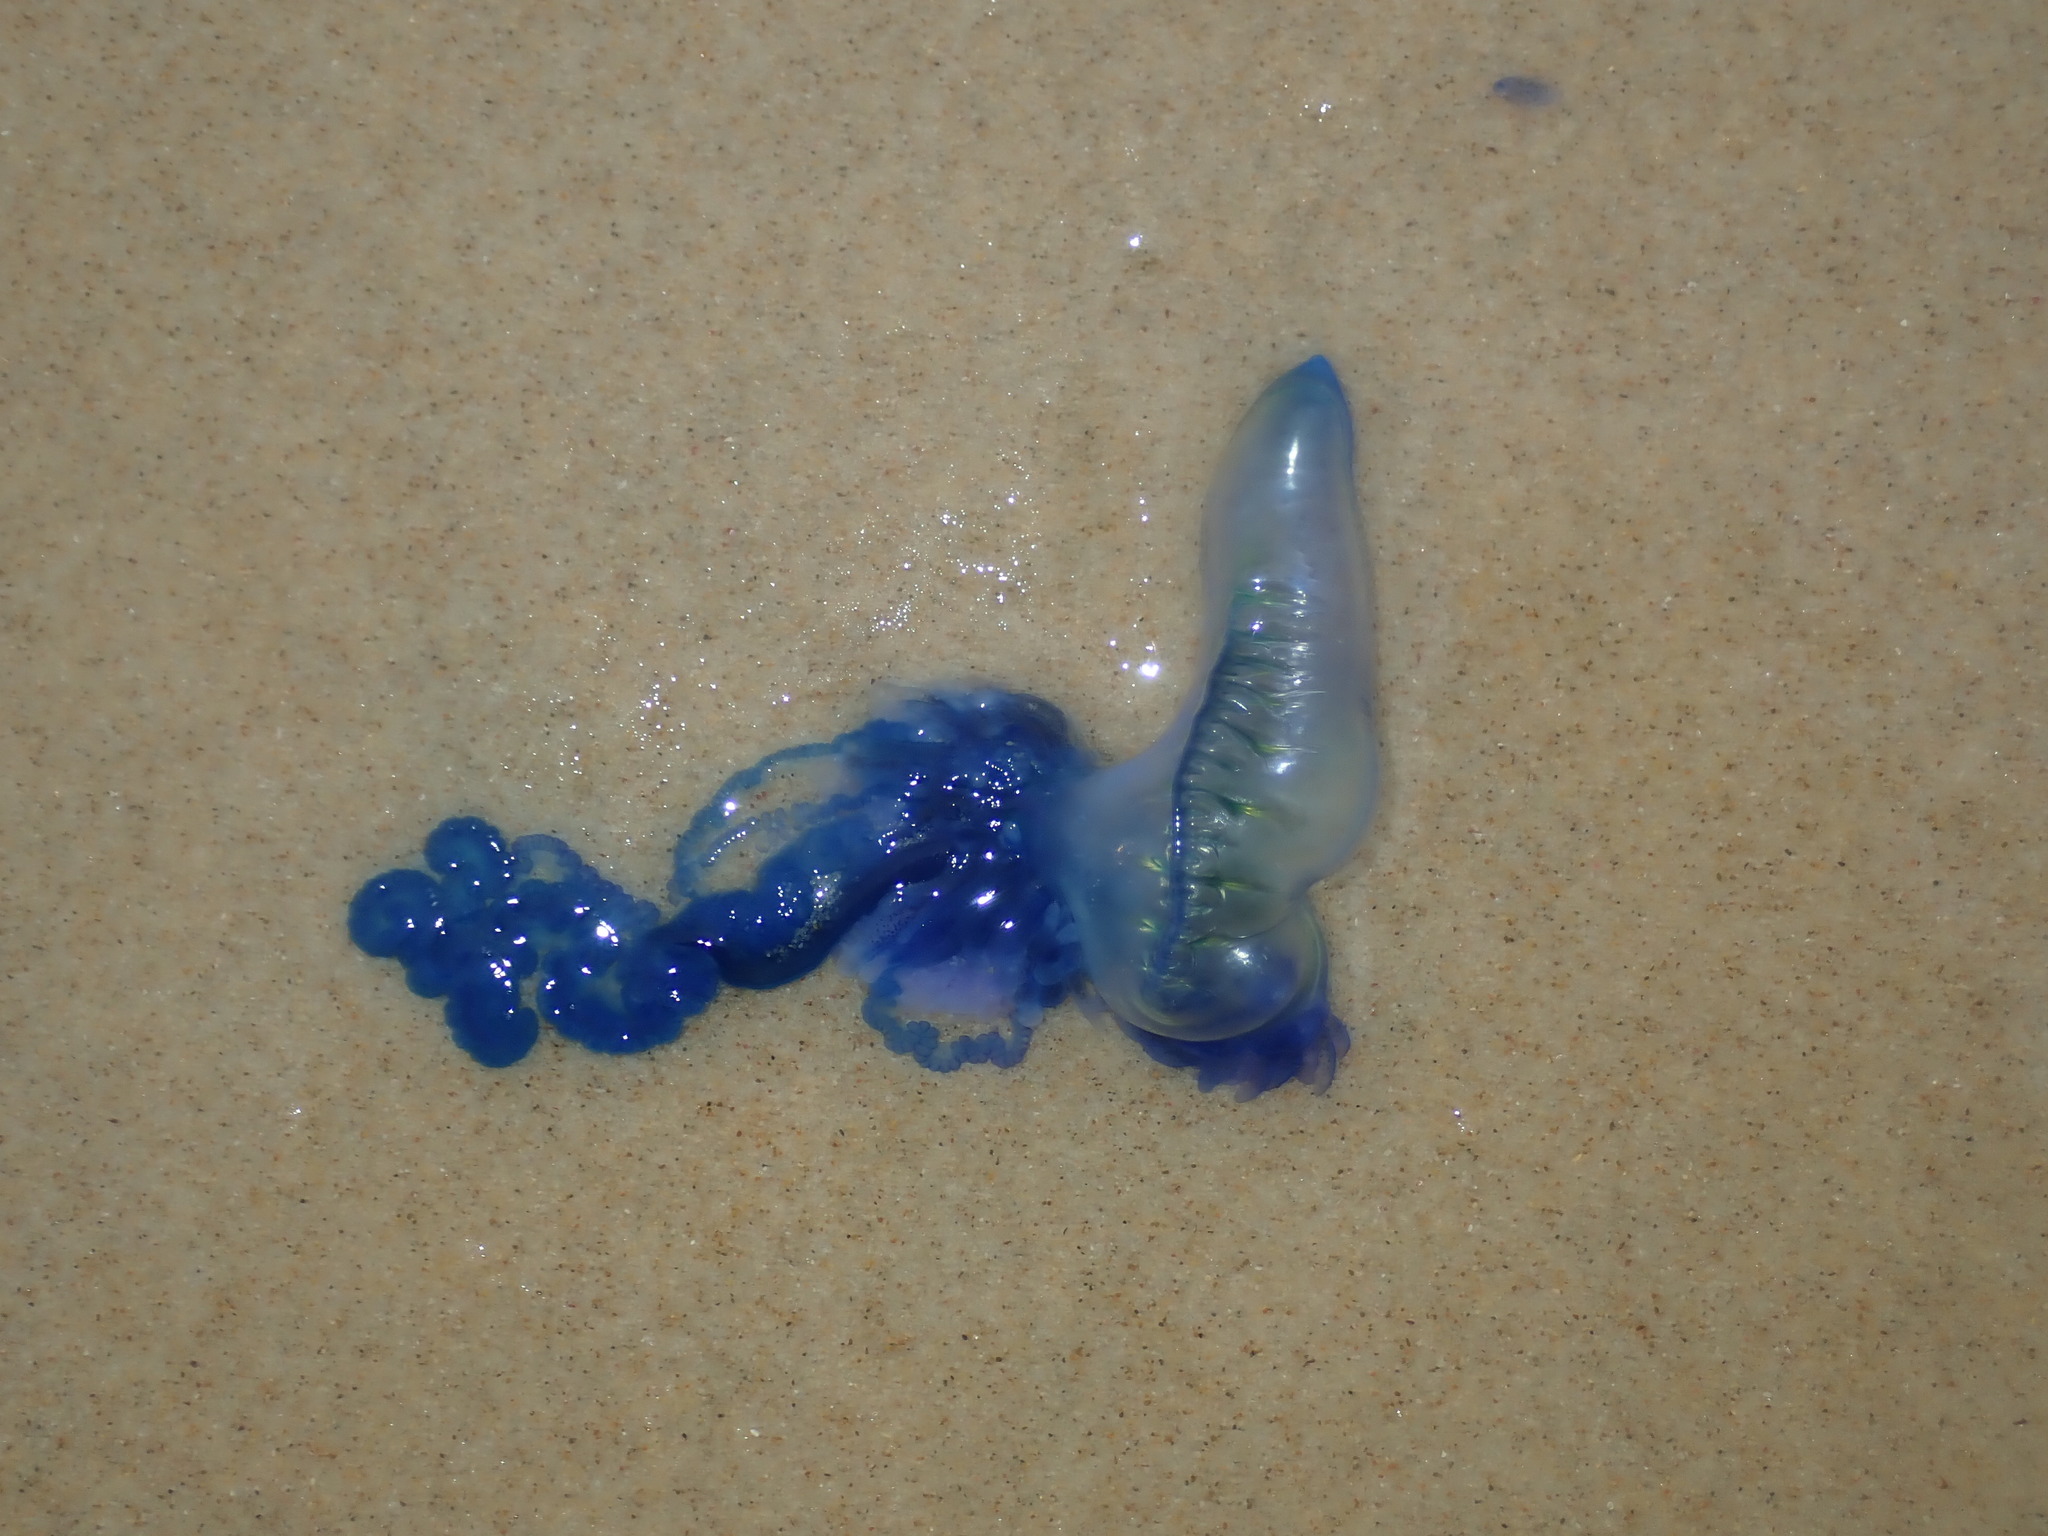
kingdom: Animalia
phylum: Cnidaria
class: Hydrozoa
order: Siphonophorae
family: Physaliidae
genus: Physalia
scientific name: Physalia physalis
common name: Portuguese man-of-war
